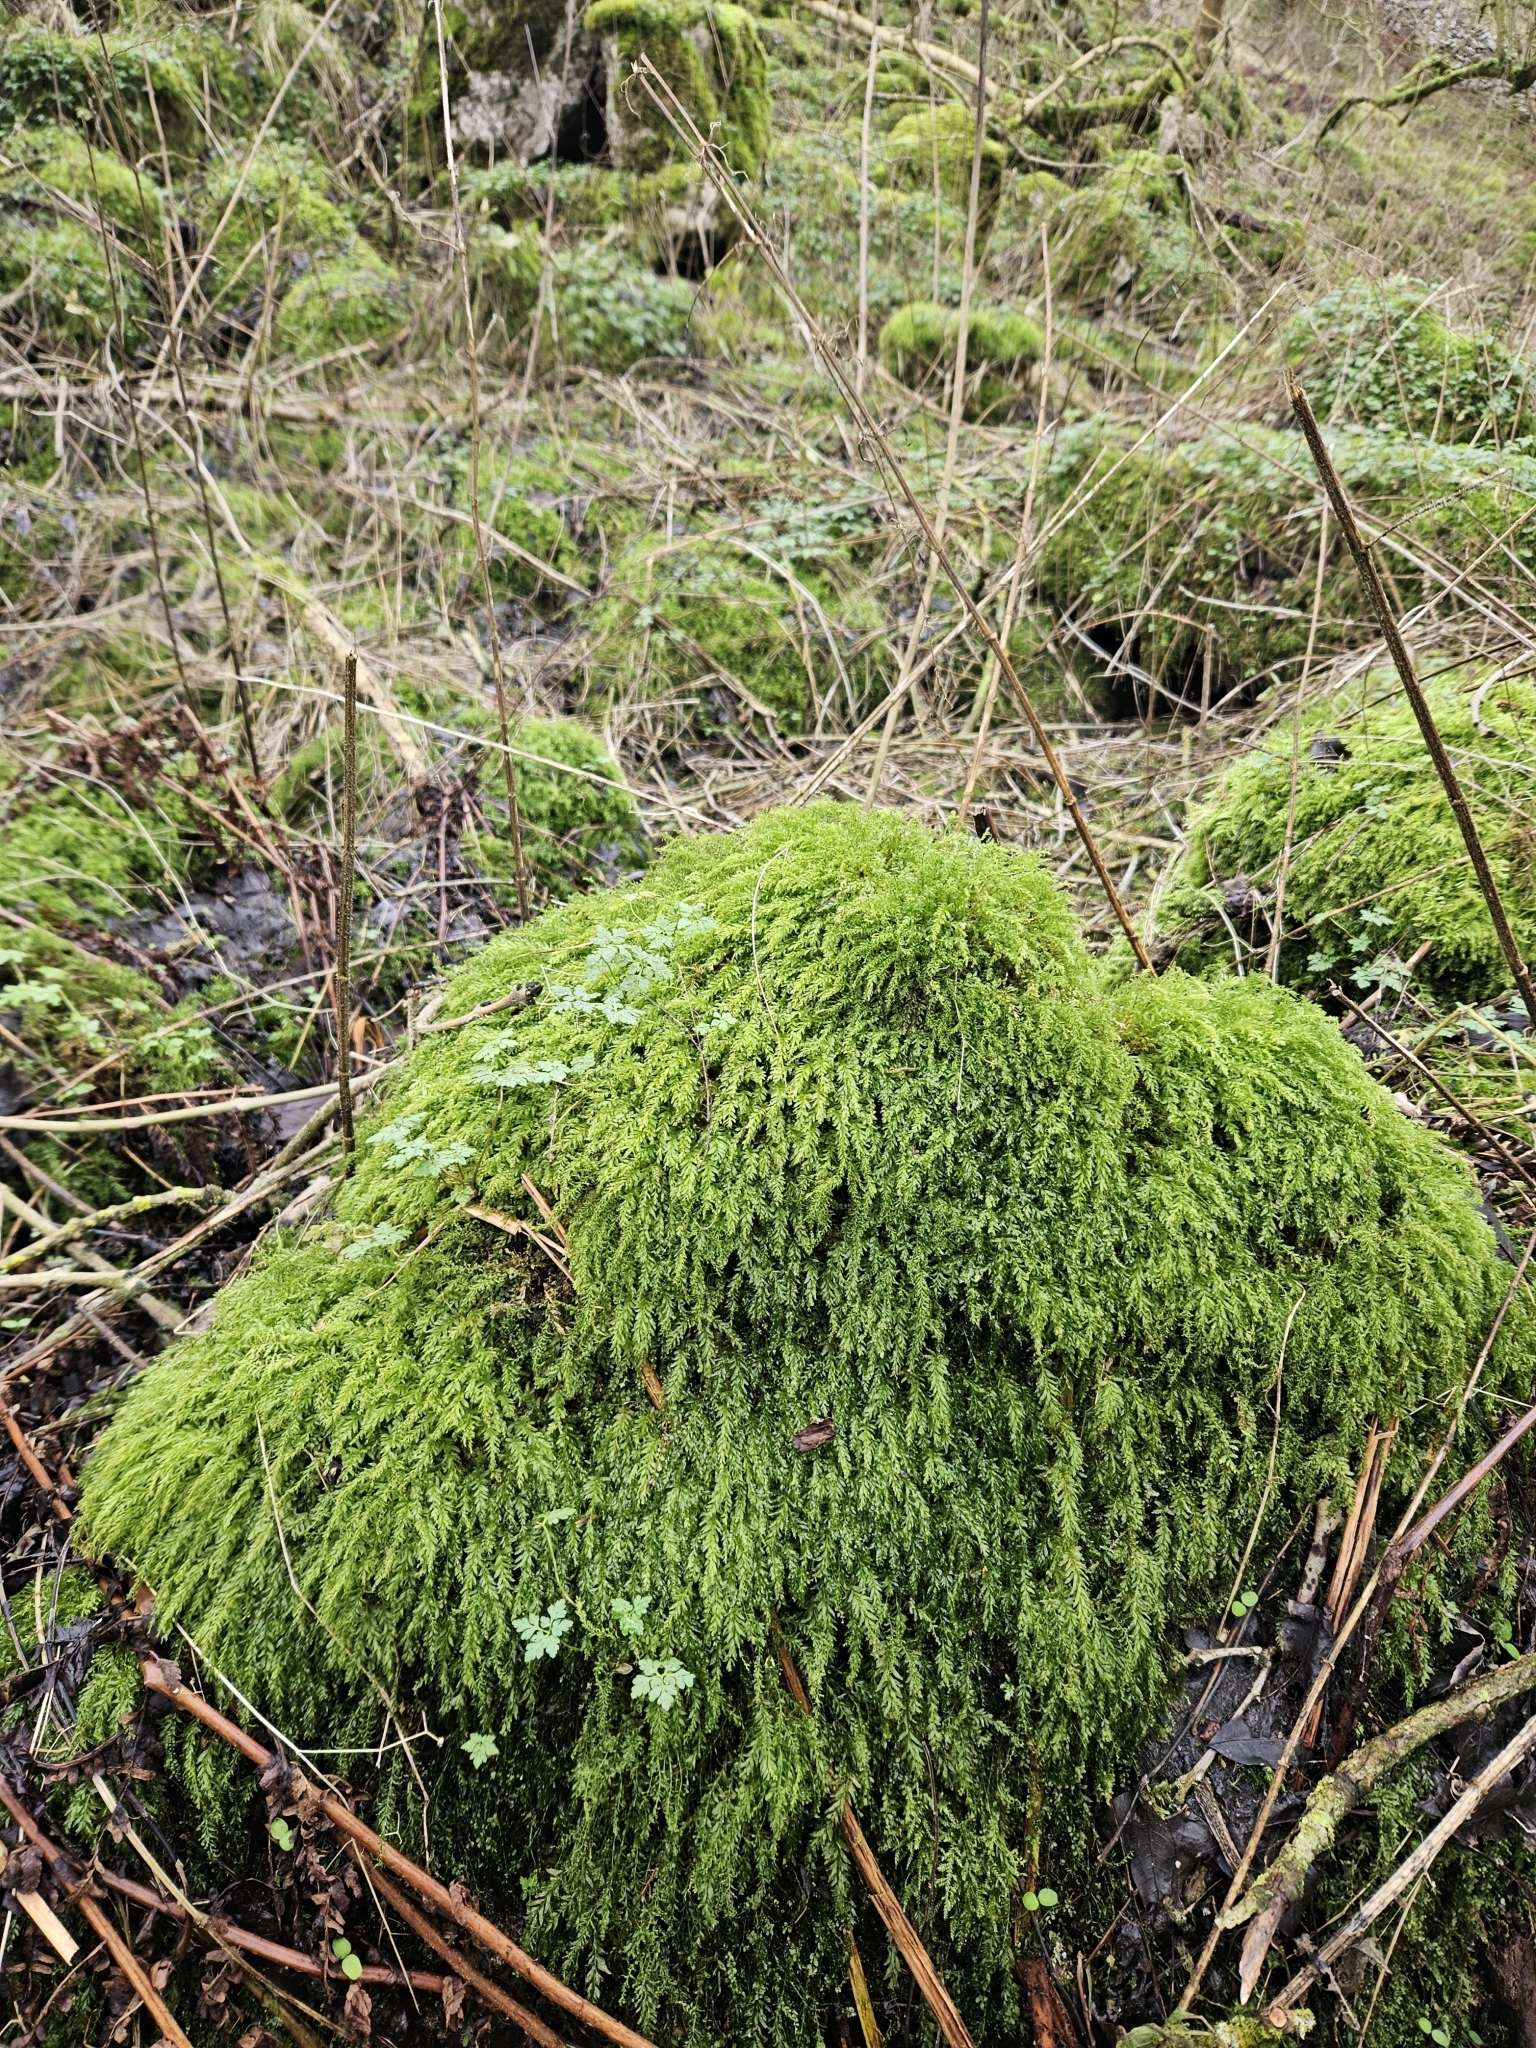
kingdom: Plantae
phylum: Bryophyta
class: Bryopsida
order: Bryales
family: Mniaceae
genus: Plagiomnium
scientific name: Plagiomnium undulatum
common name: Hart's-tongue thyme-moss
